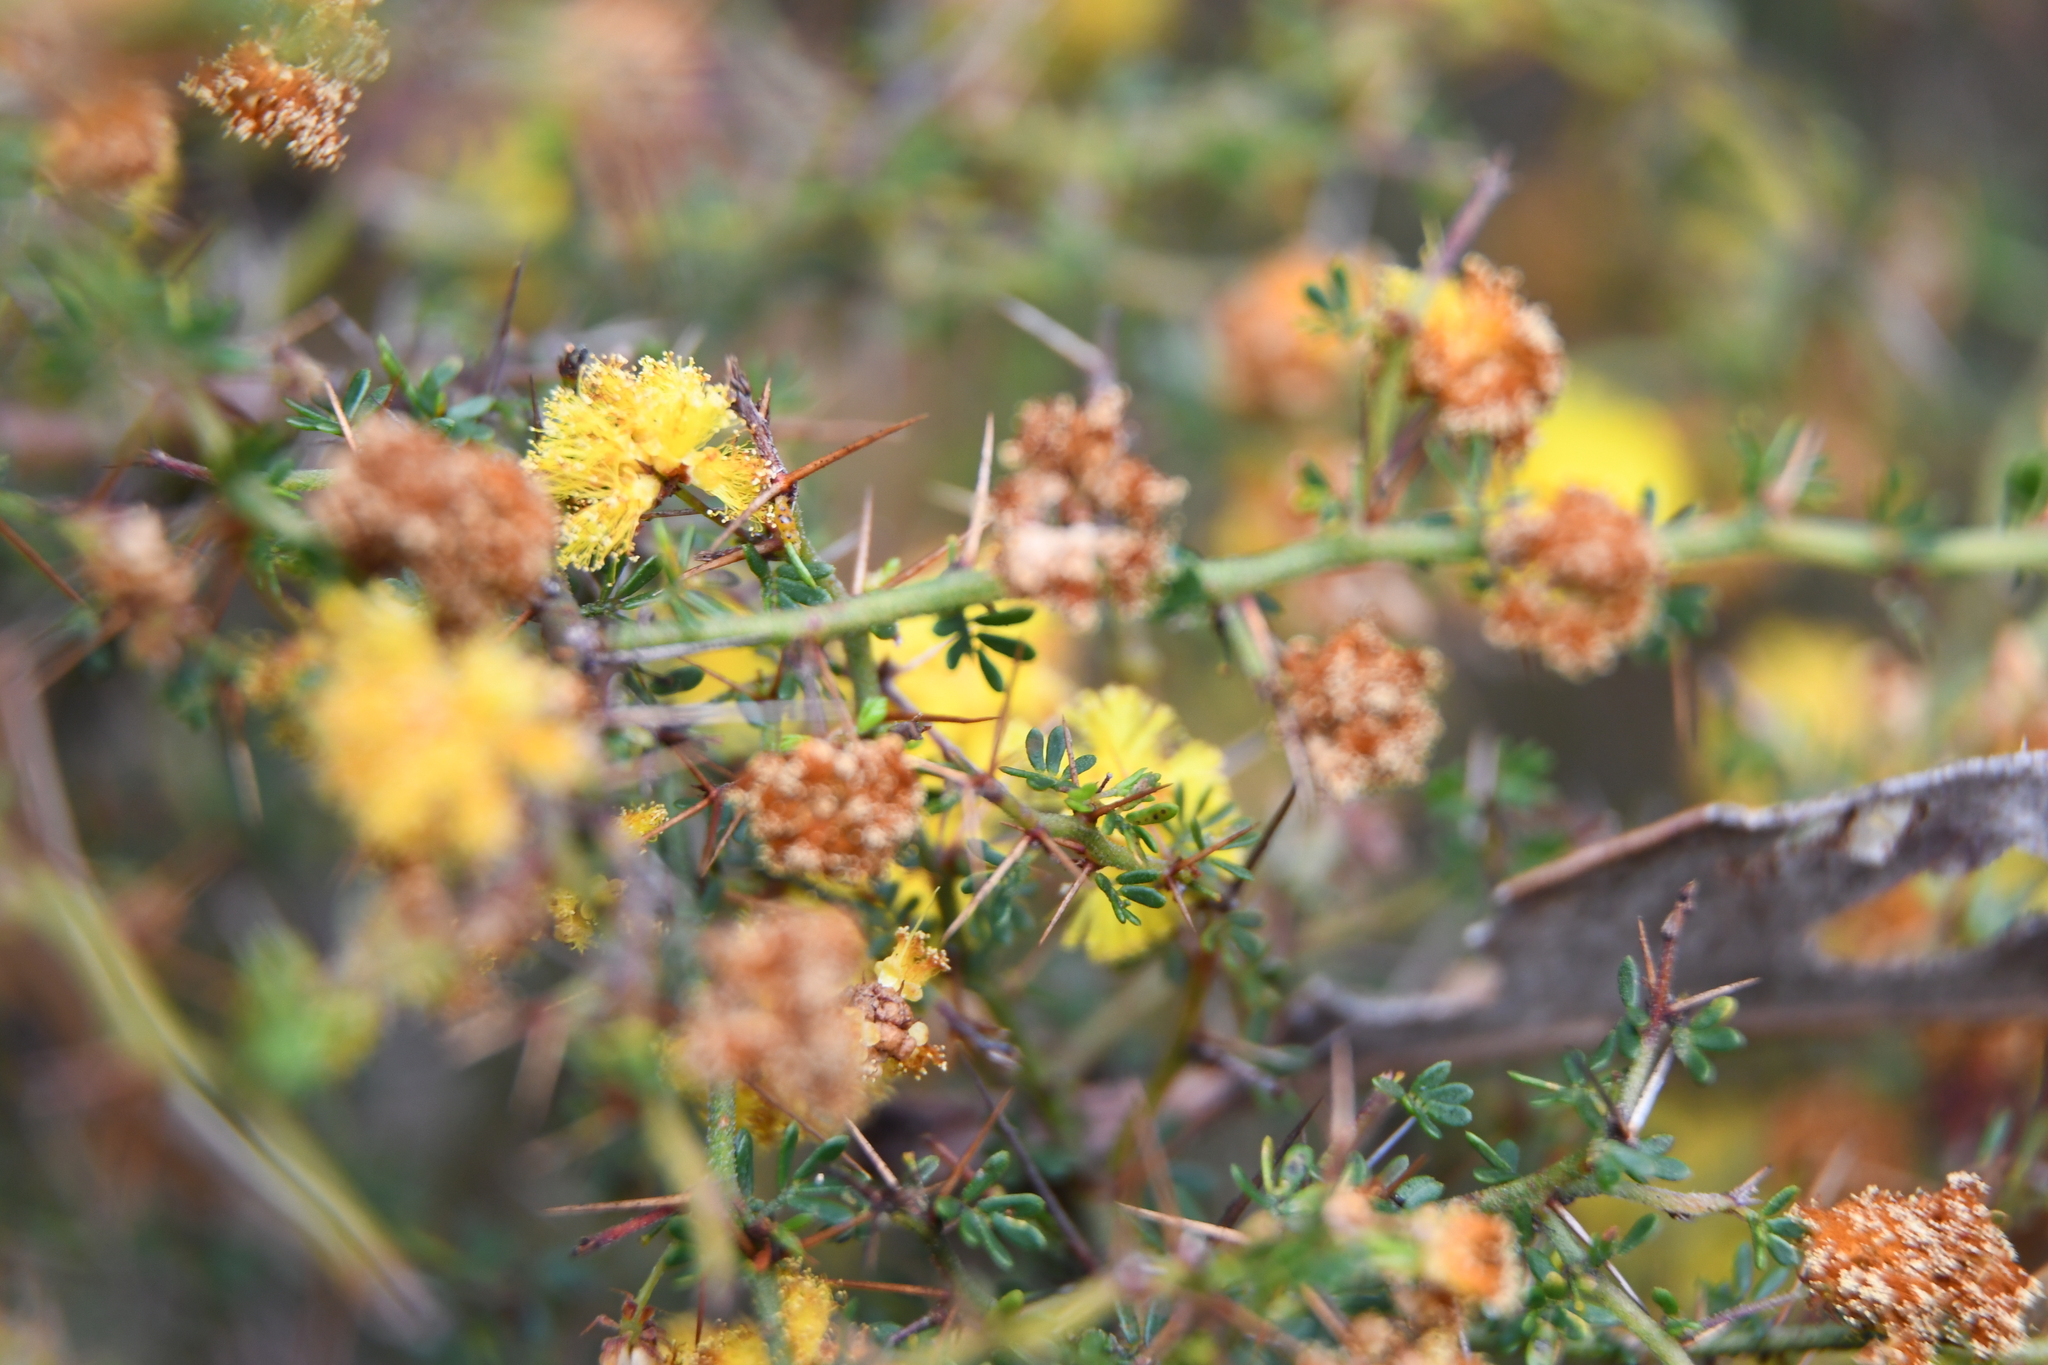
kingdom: Plantae
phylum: Tracheophyta
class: Magnoliopsida
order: Fabales
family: Fabaceae
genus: Acacia
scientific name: Acacia pulchella
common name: Prickly moses
